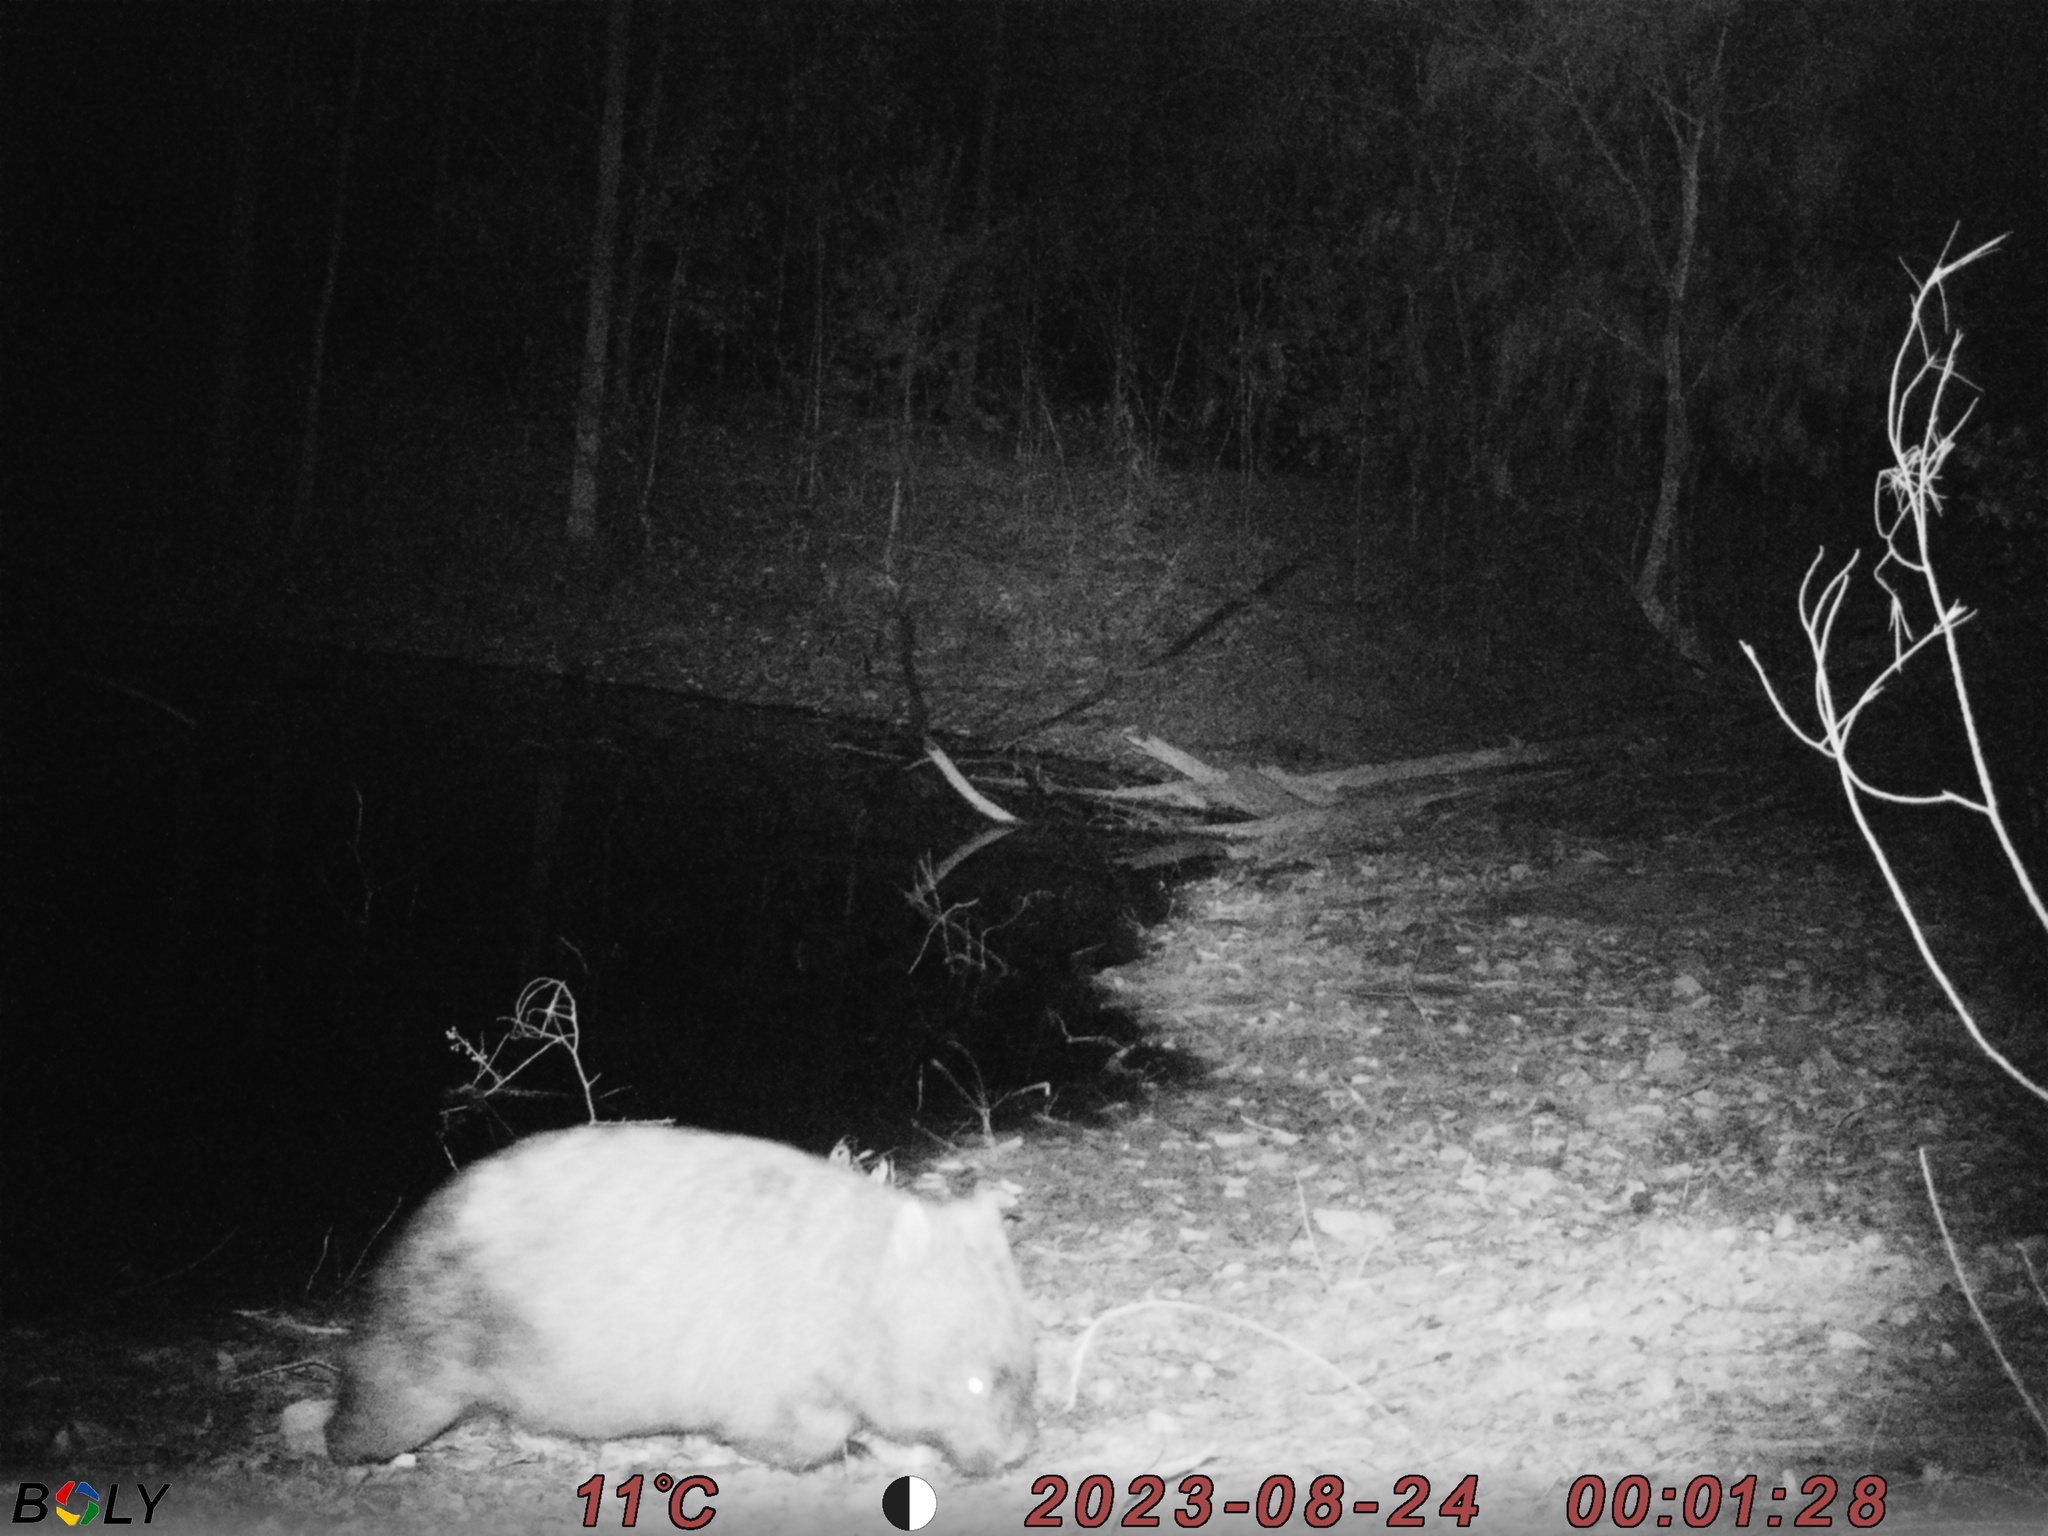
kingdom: Animalia
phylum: Chordata
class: Mammalia
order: Diprotodontia
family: Vombatidae
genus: Vombatus
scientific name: Vombatus ursinus
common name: Common wombat
